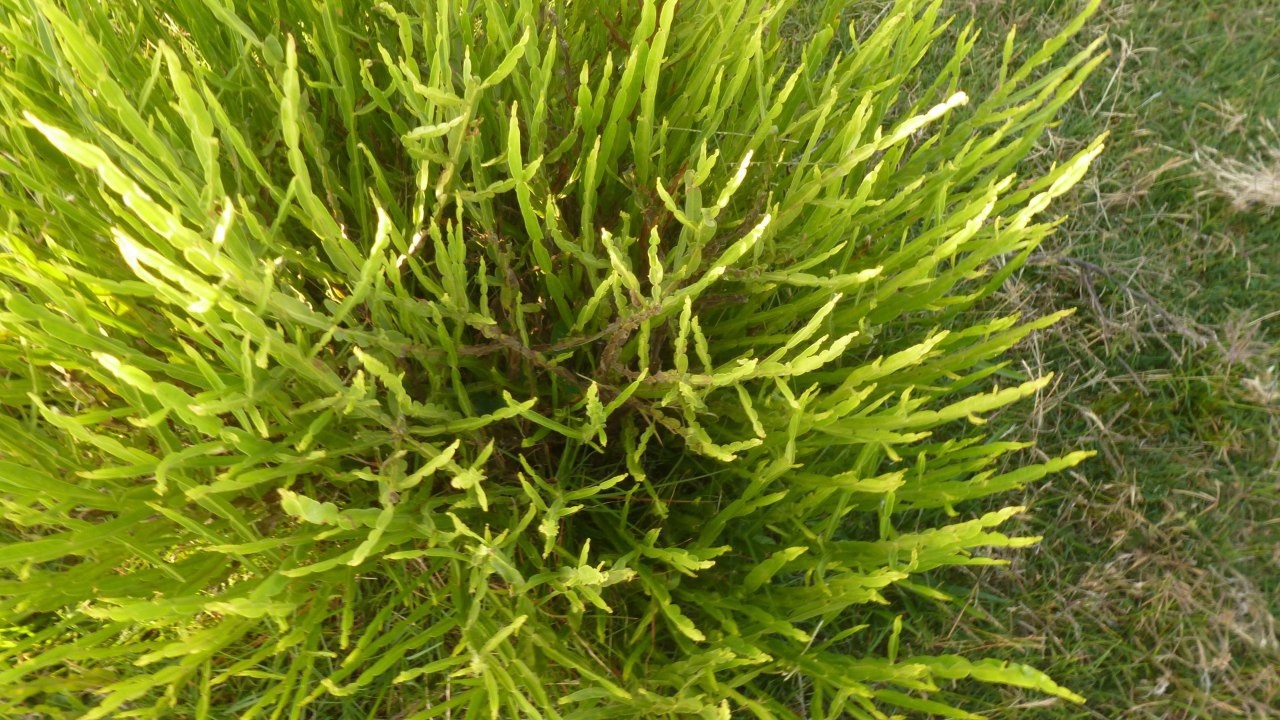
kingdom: Plantae
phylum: Tracheophyta
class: Magnoliopsida
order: Asterales
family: Asteraceae
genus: Baccharis
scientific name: Baccharis trimera
